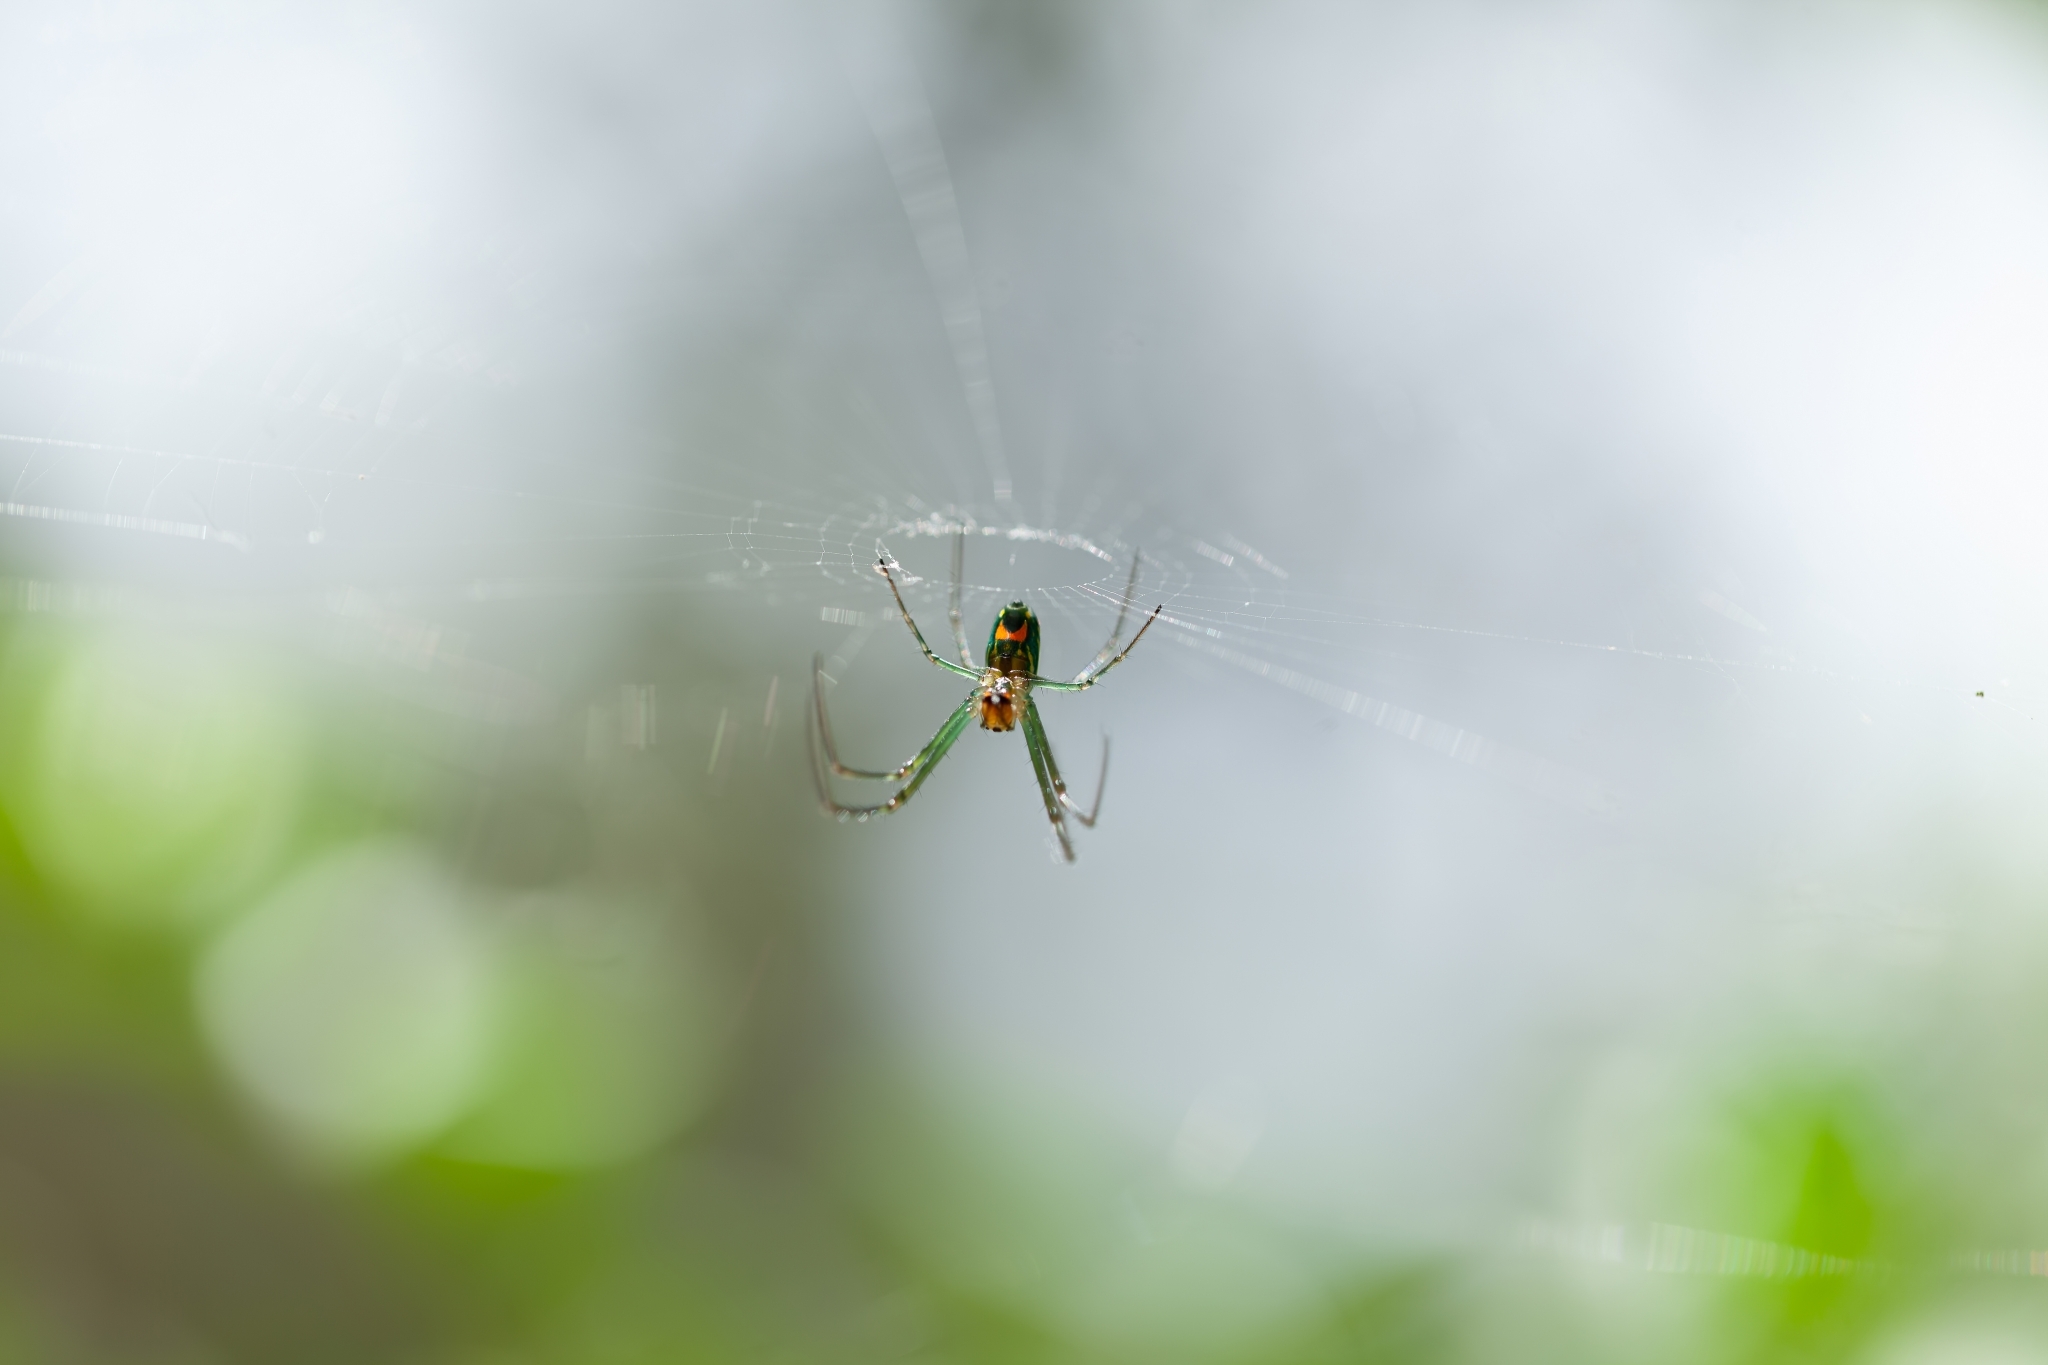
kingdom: Animalia
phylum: Arthropoda
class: Arachnida
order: Araneae
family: Tetragnathidae
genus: Leucauge
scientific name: Leucauge argyrobapta
